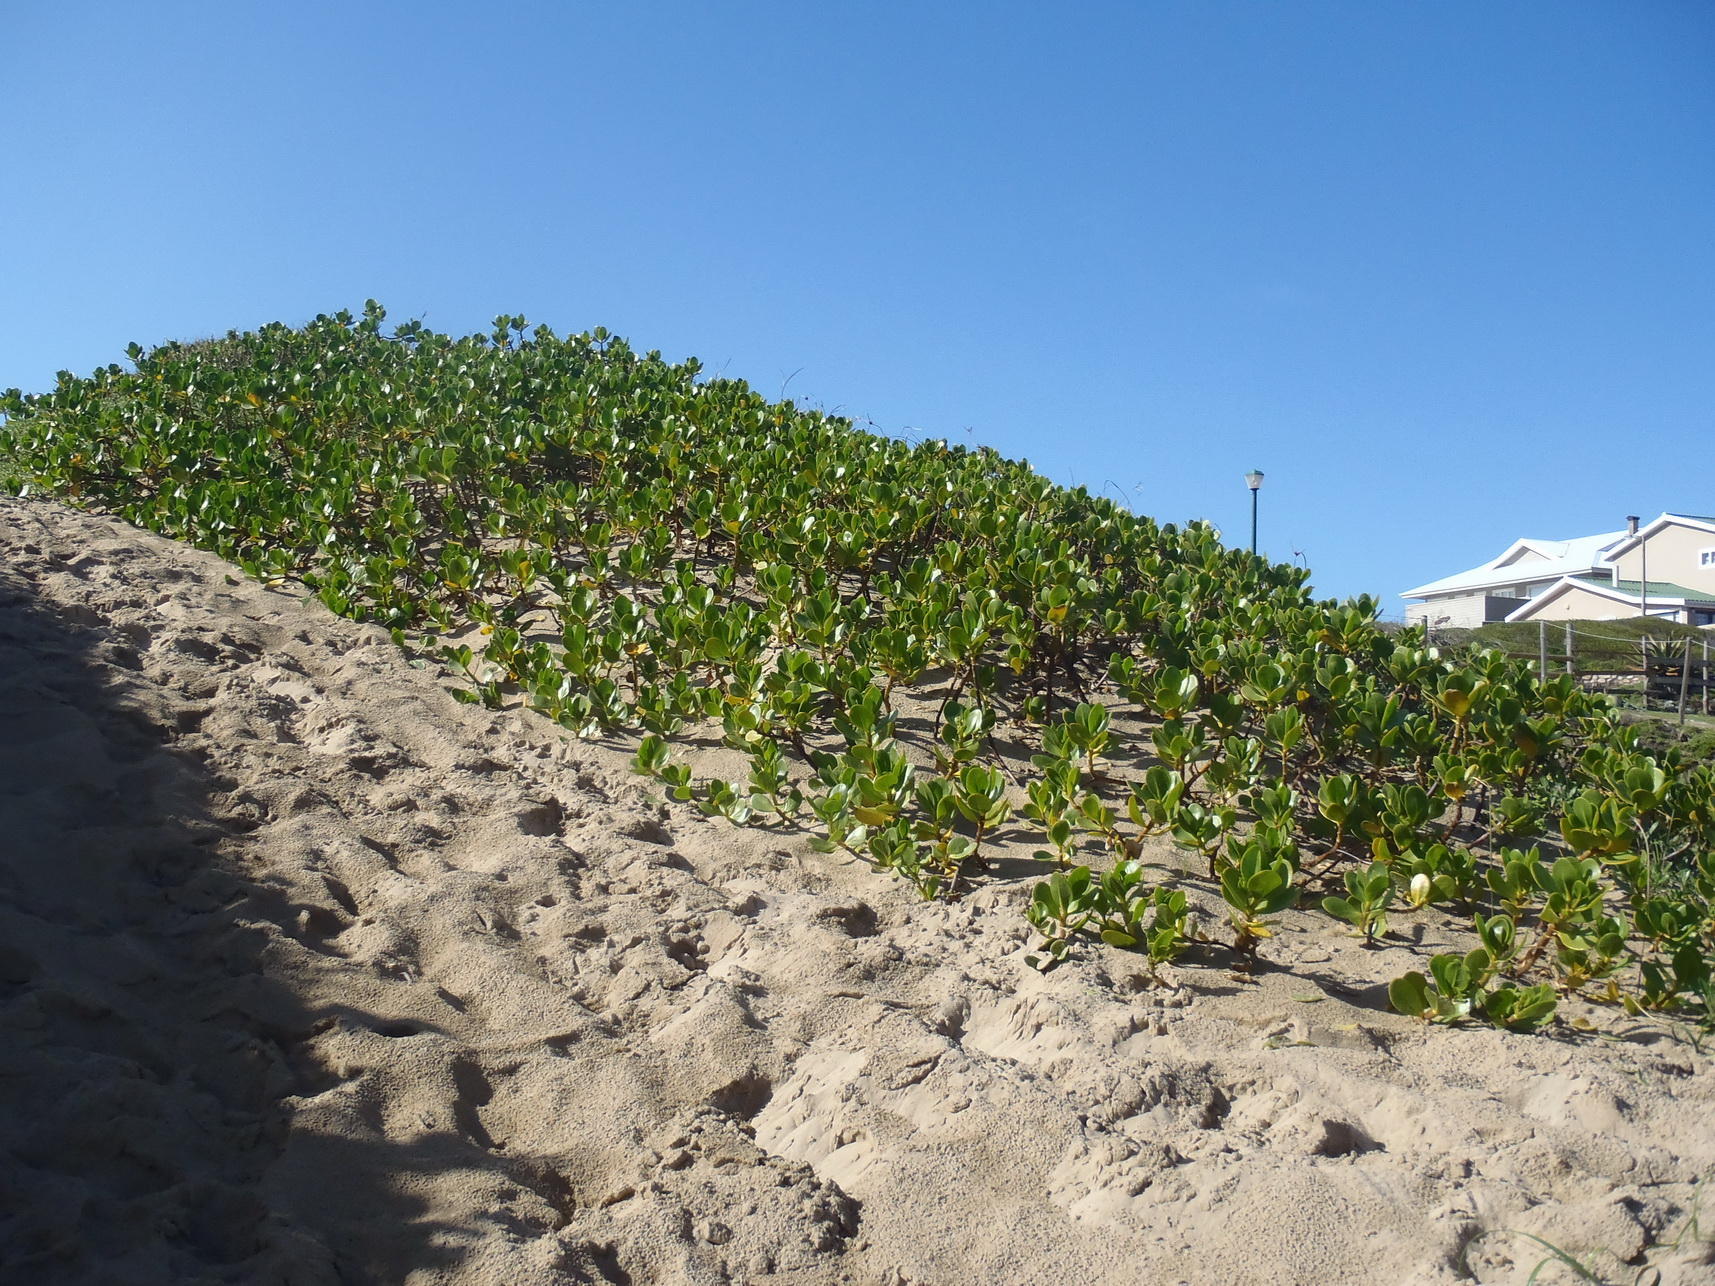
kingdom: Plantae
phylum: Tracheophyta
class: Magnoliopsida
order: Asterales
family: Goodeniaceae
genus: Scaevola
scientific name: Scaevola plumieri
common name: Gull feed
